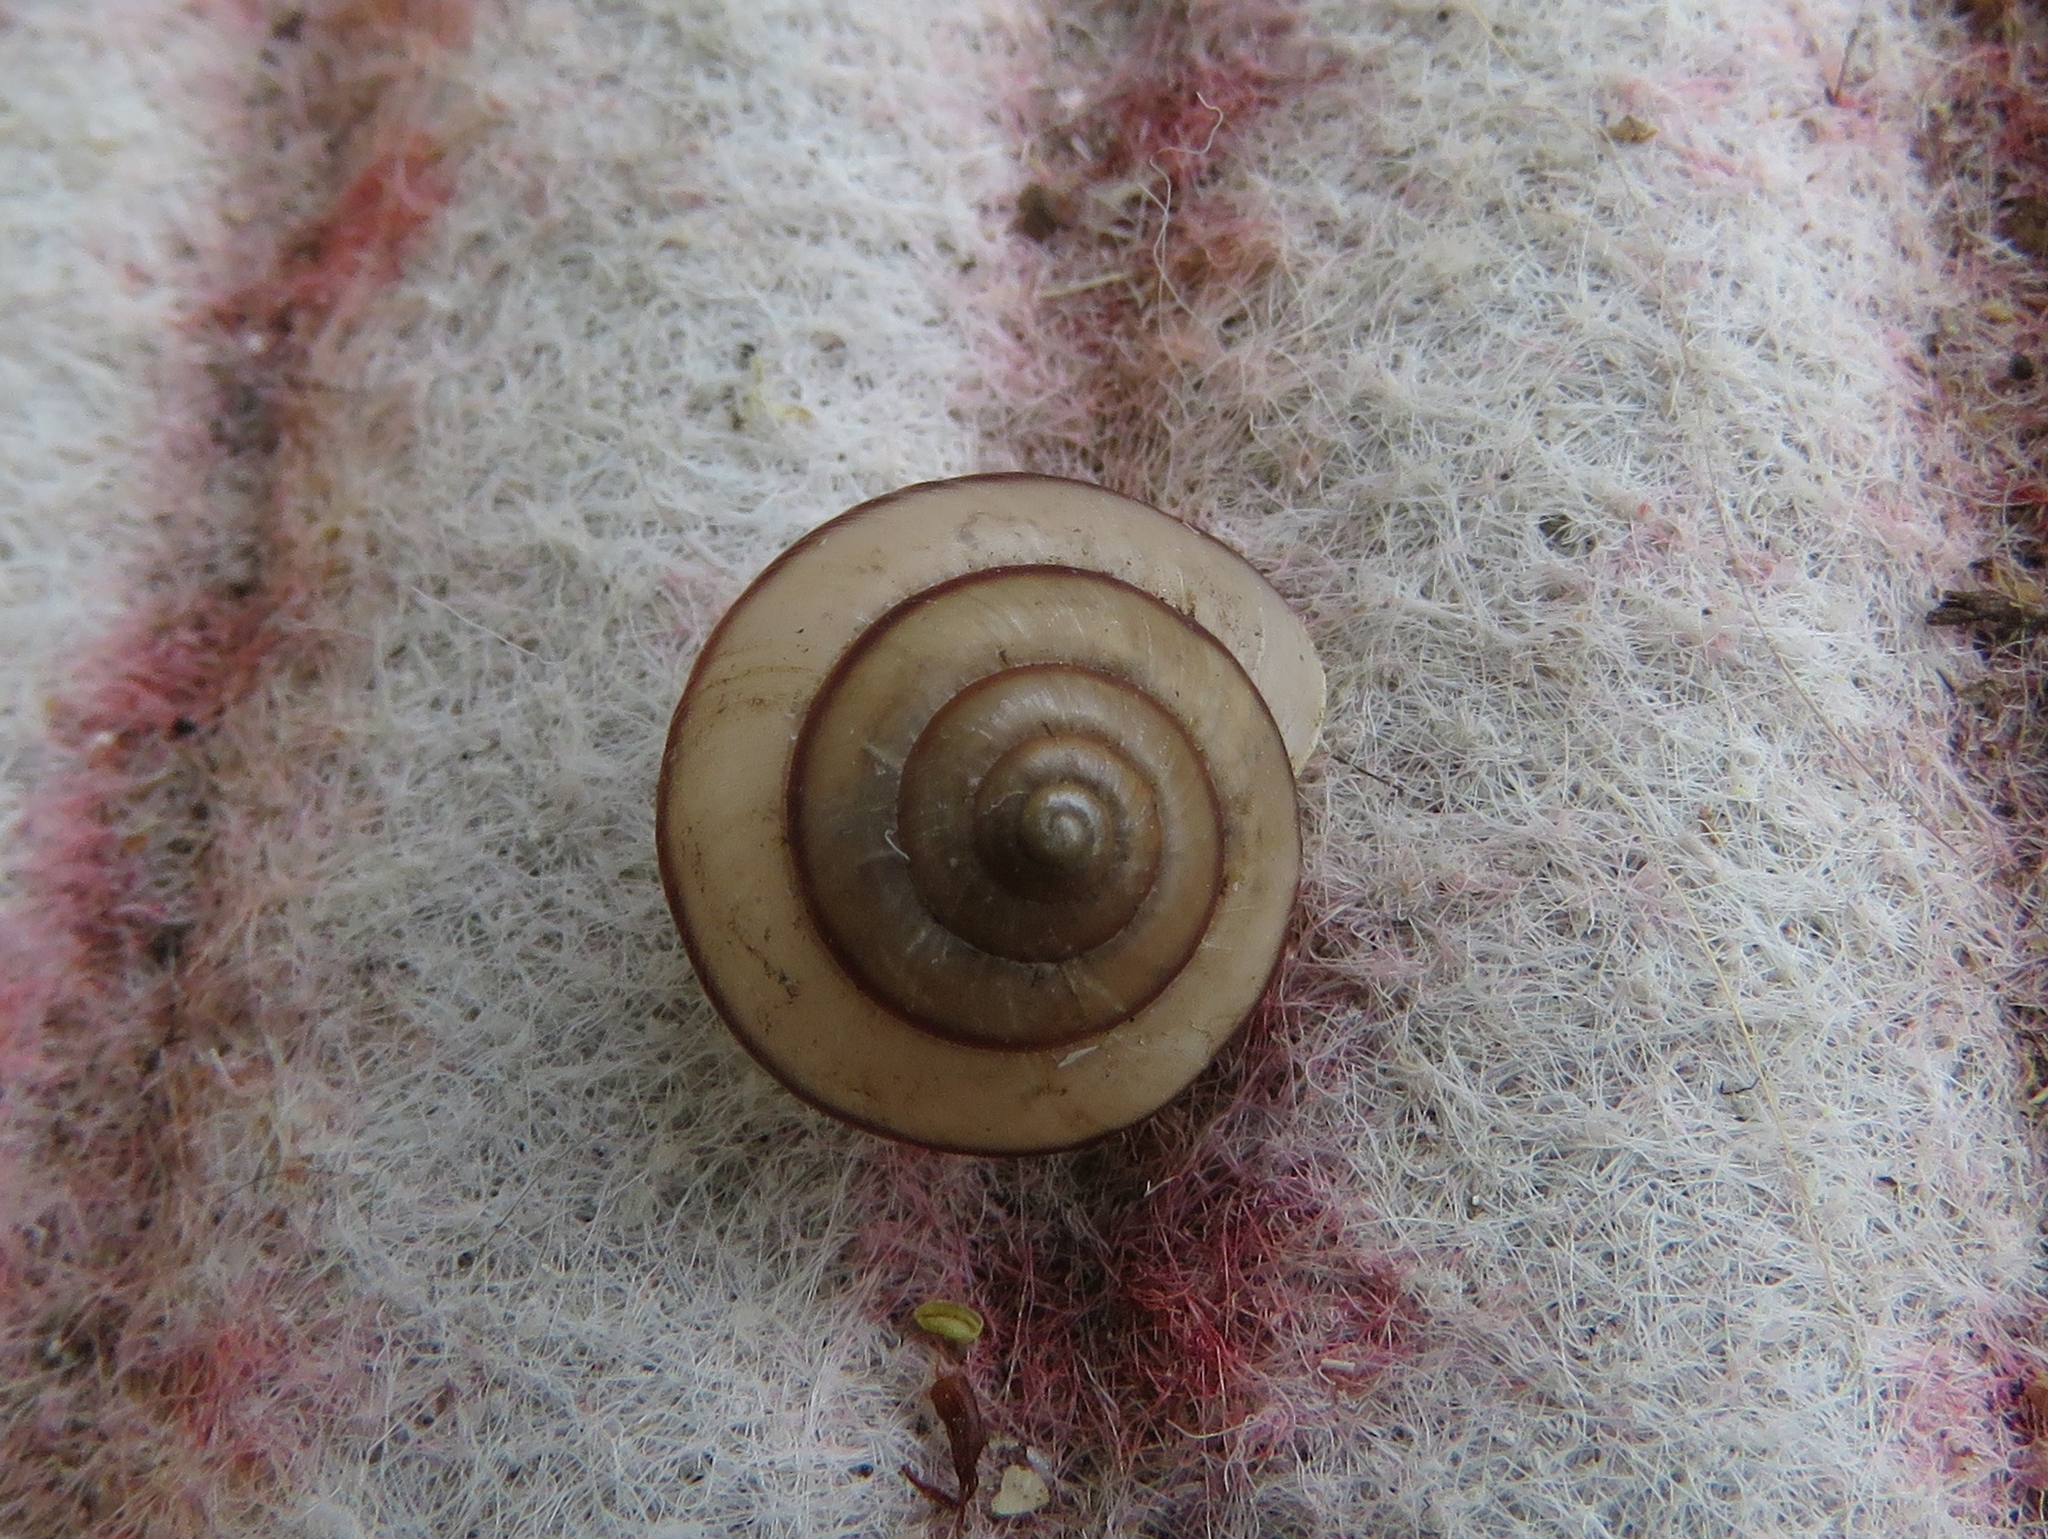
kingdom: Animalia
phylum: Mollusca
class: Gastropoda
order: Stylommatophora
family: Camaenidae
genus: Bradybaena
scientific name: Bradybaena similaris
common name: Asian trampsnail
